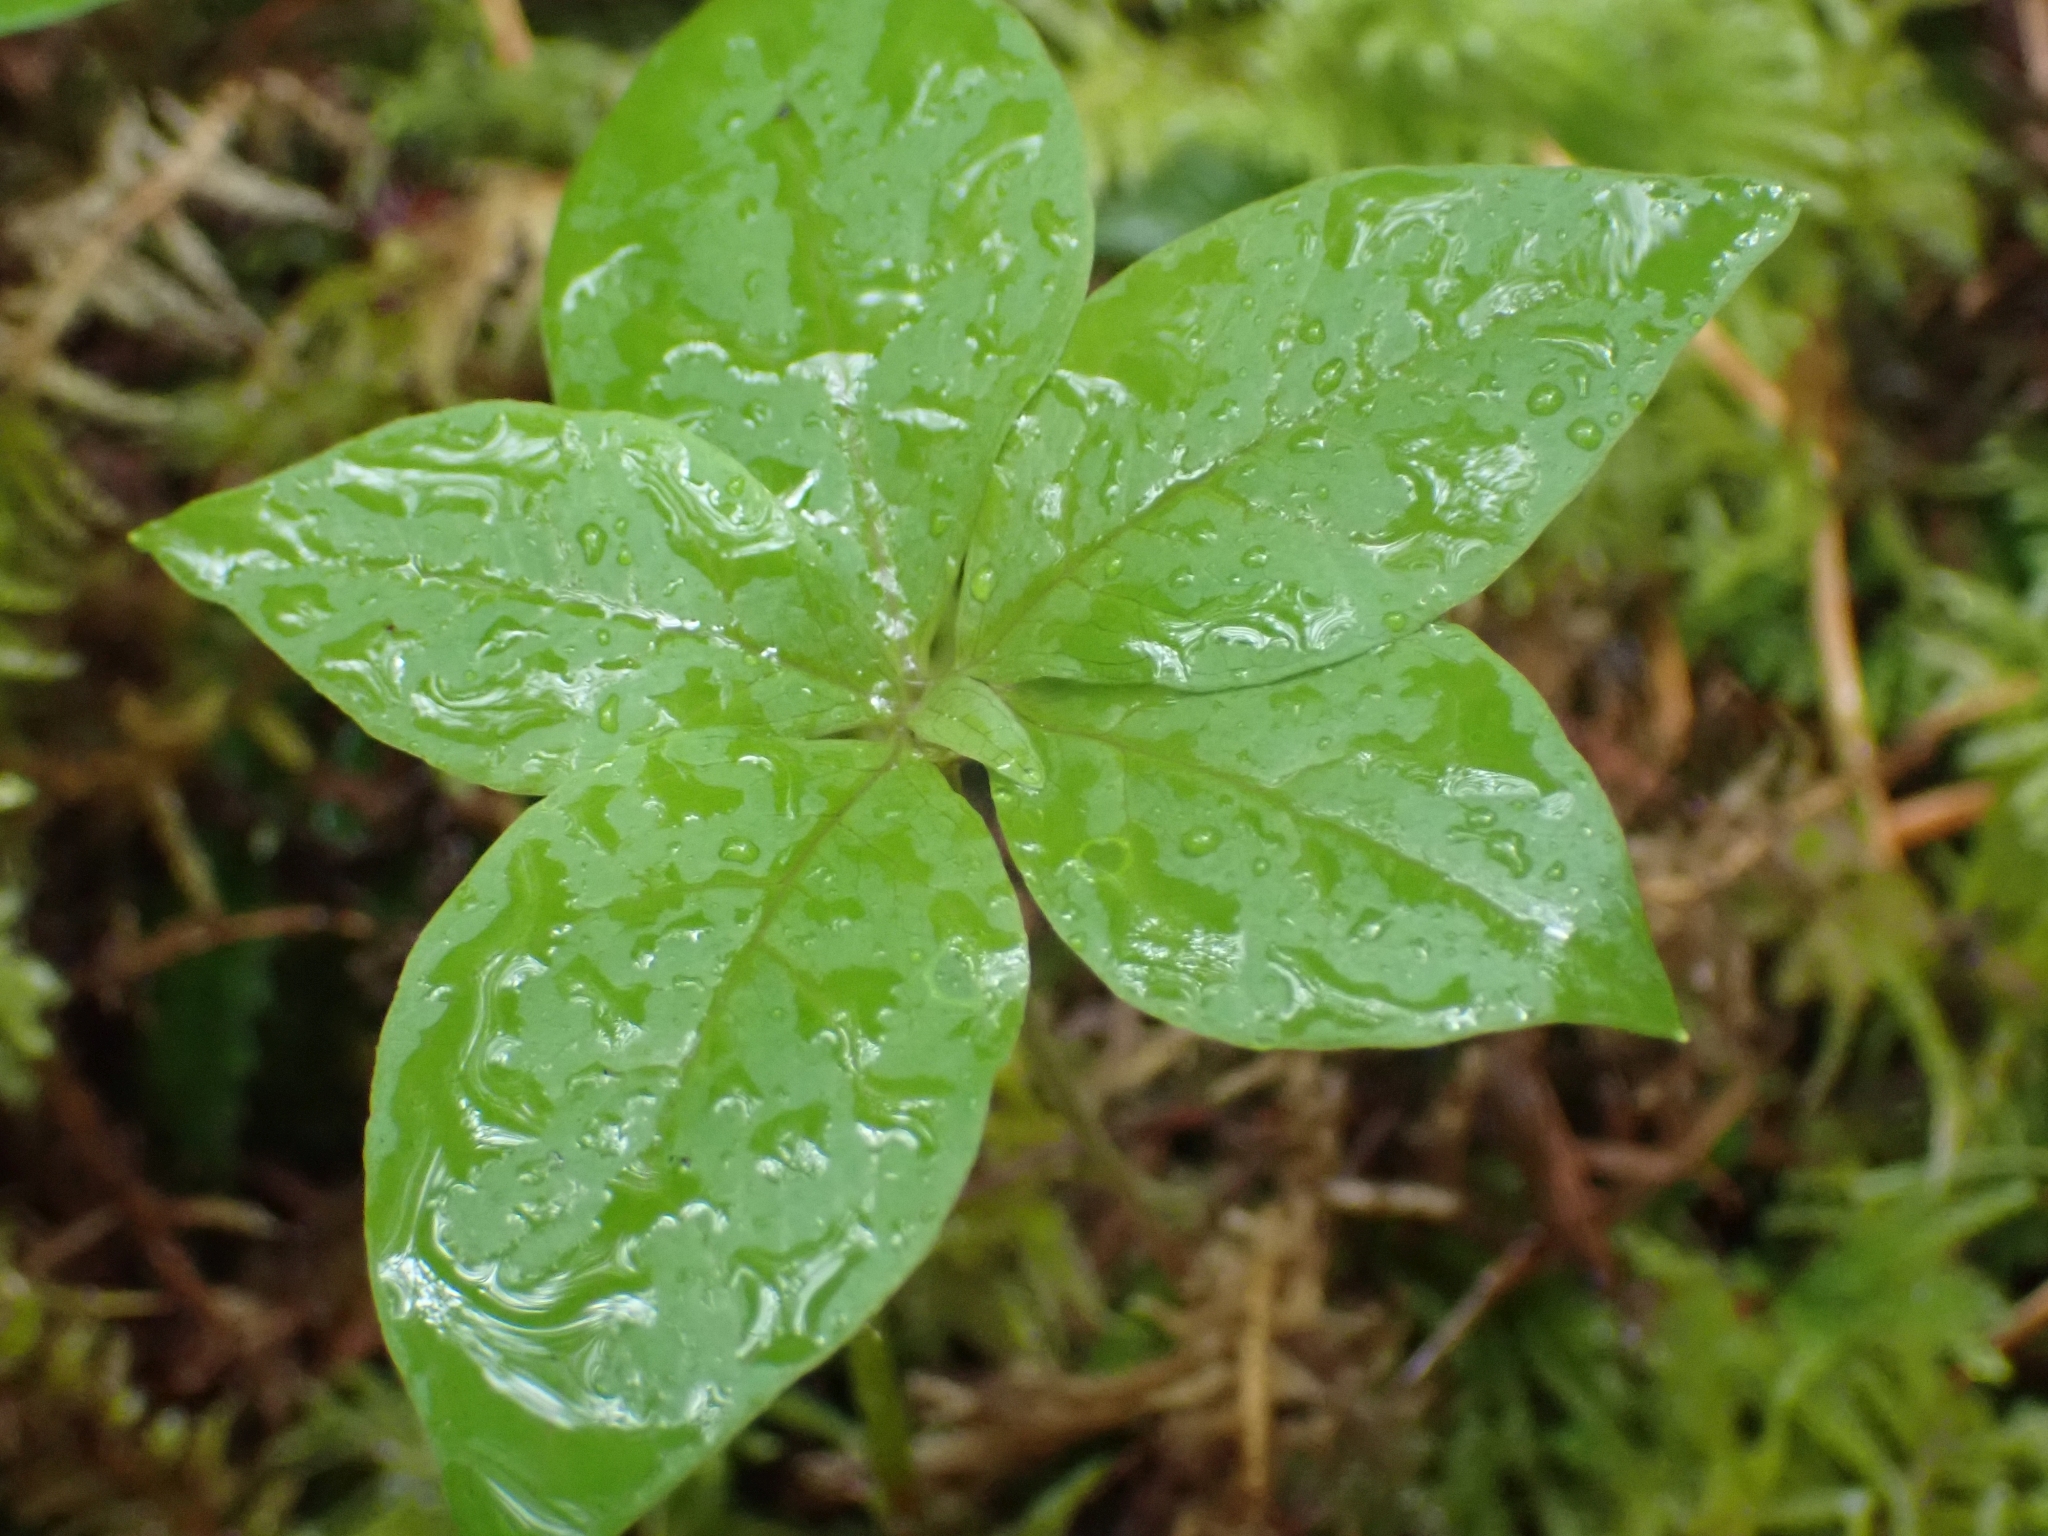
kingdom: Plantae
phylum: Tracheophyta
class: Magnoliopsida
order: Ericales
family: Primulaceae
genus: Lysimachia
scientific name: Lysimachia latifolia
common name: Pacific starflower
